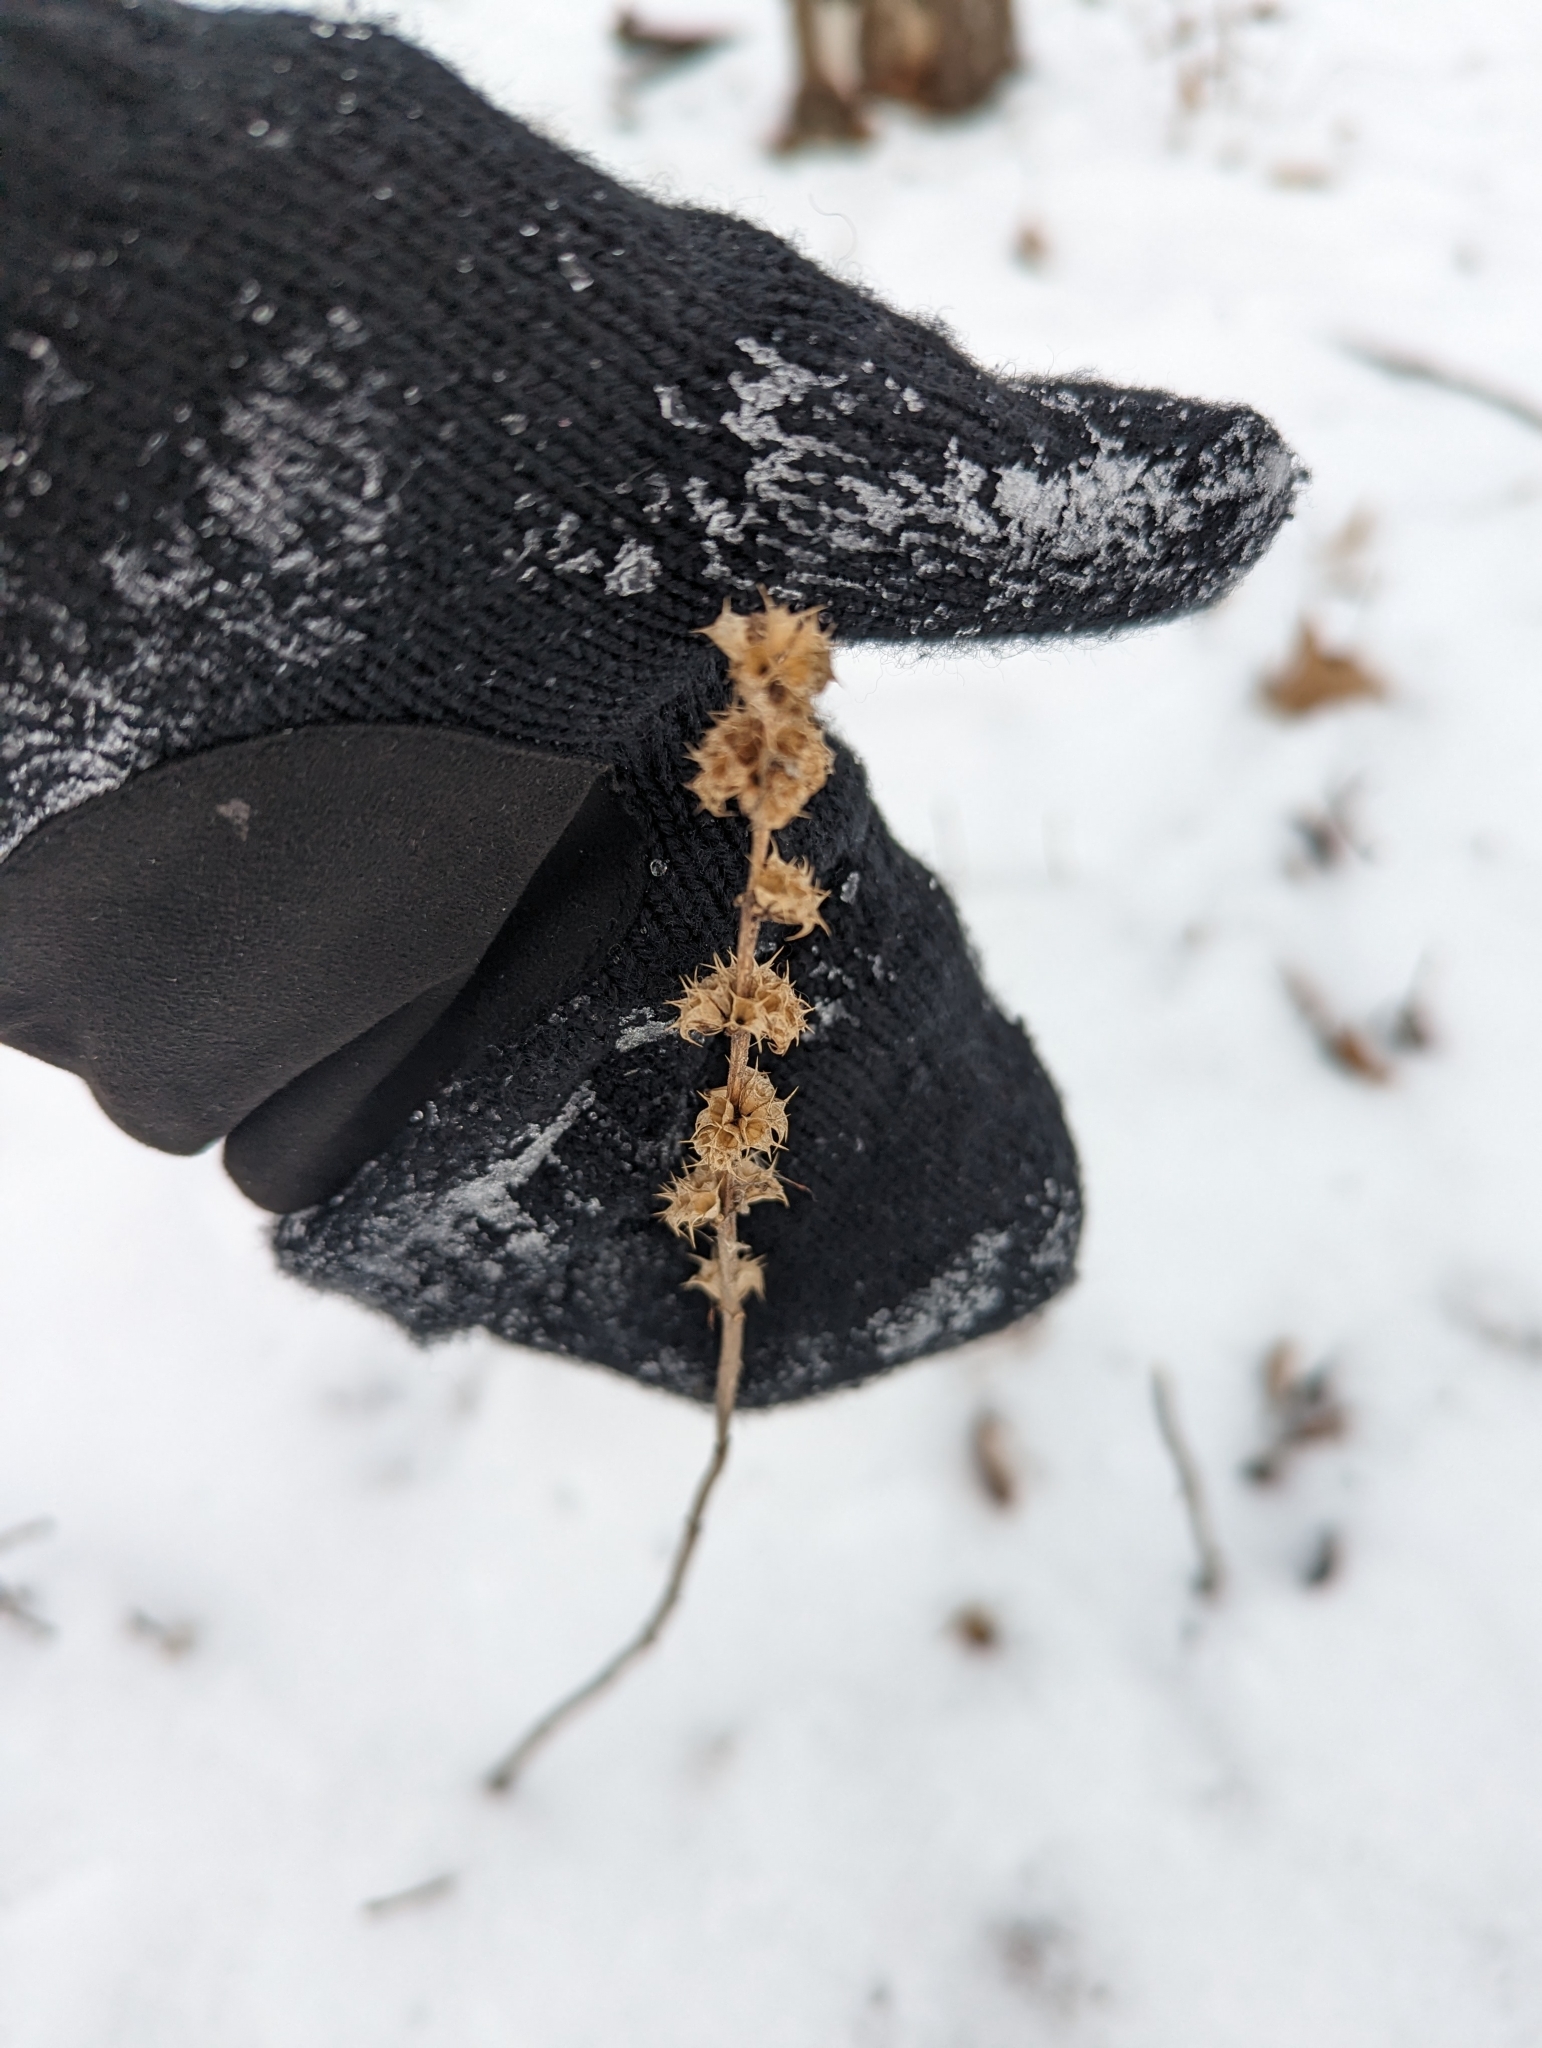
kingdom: Plantae
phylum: Tracheophyta
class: Magnoliopsida
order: Lamiales
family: Lamiaceae
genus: Leonurus
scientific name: Leonurus cardiaca
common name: Motherwort
